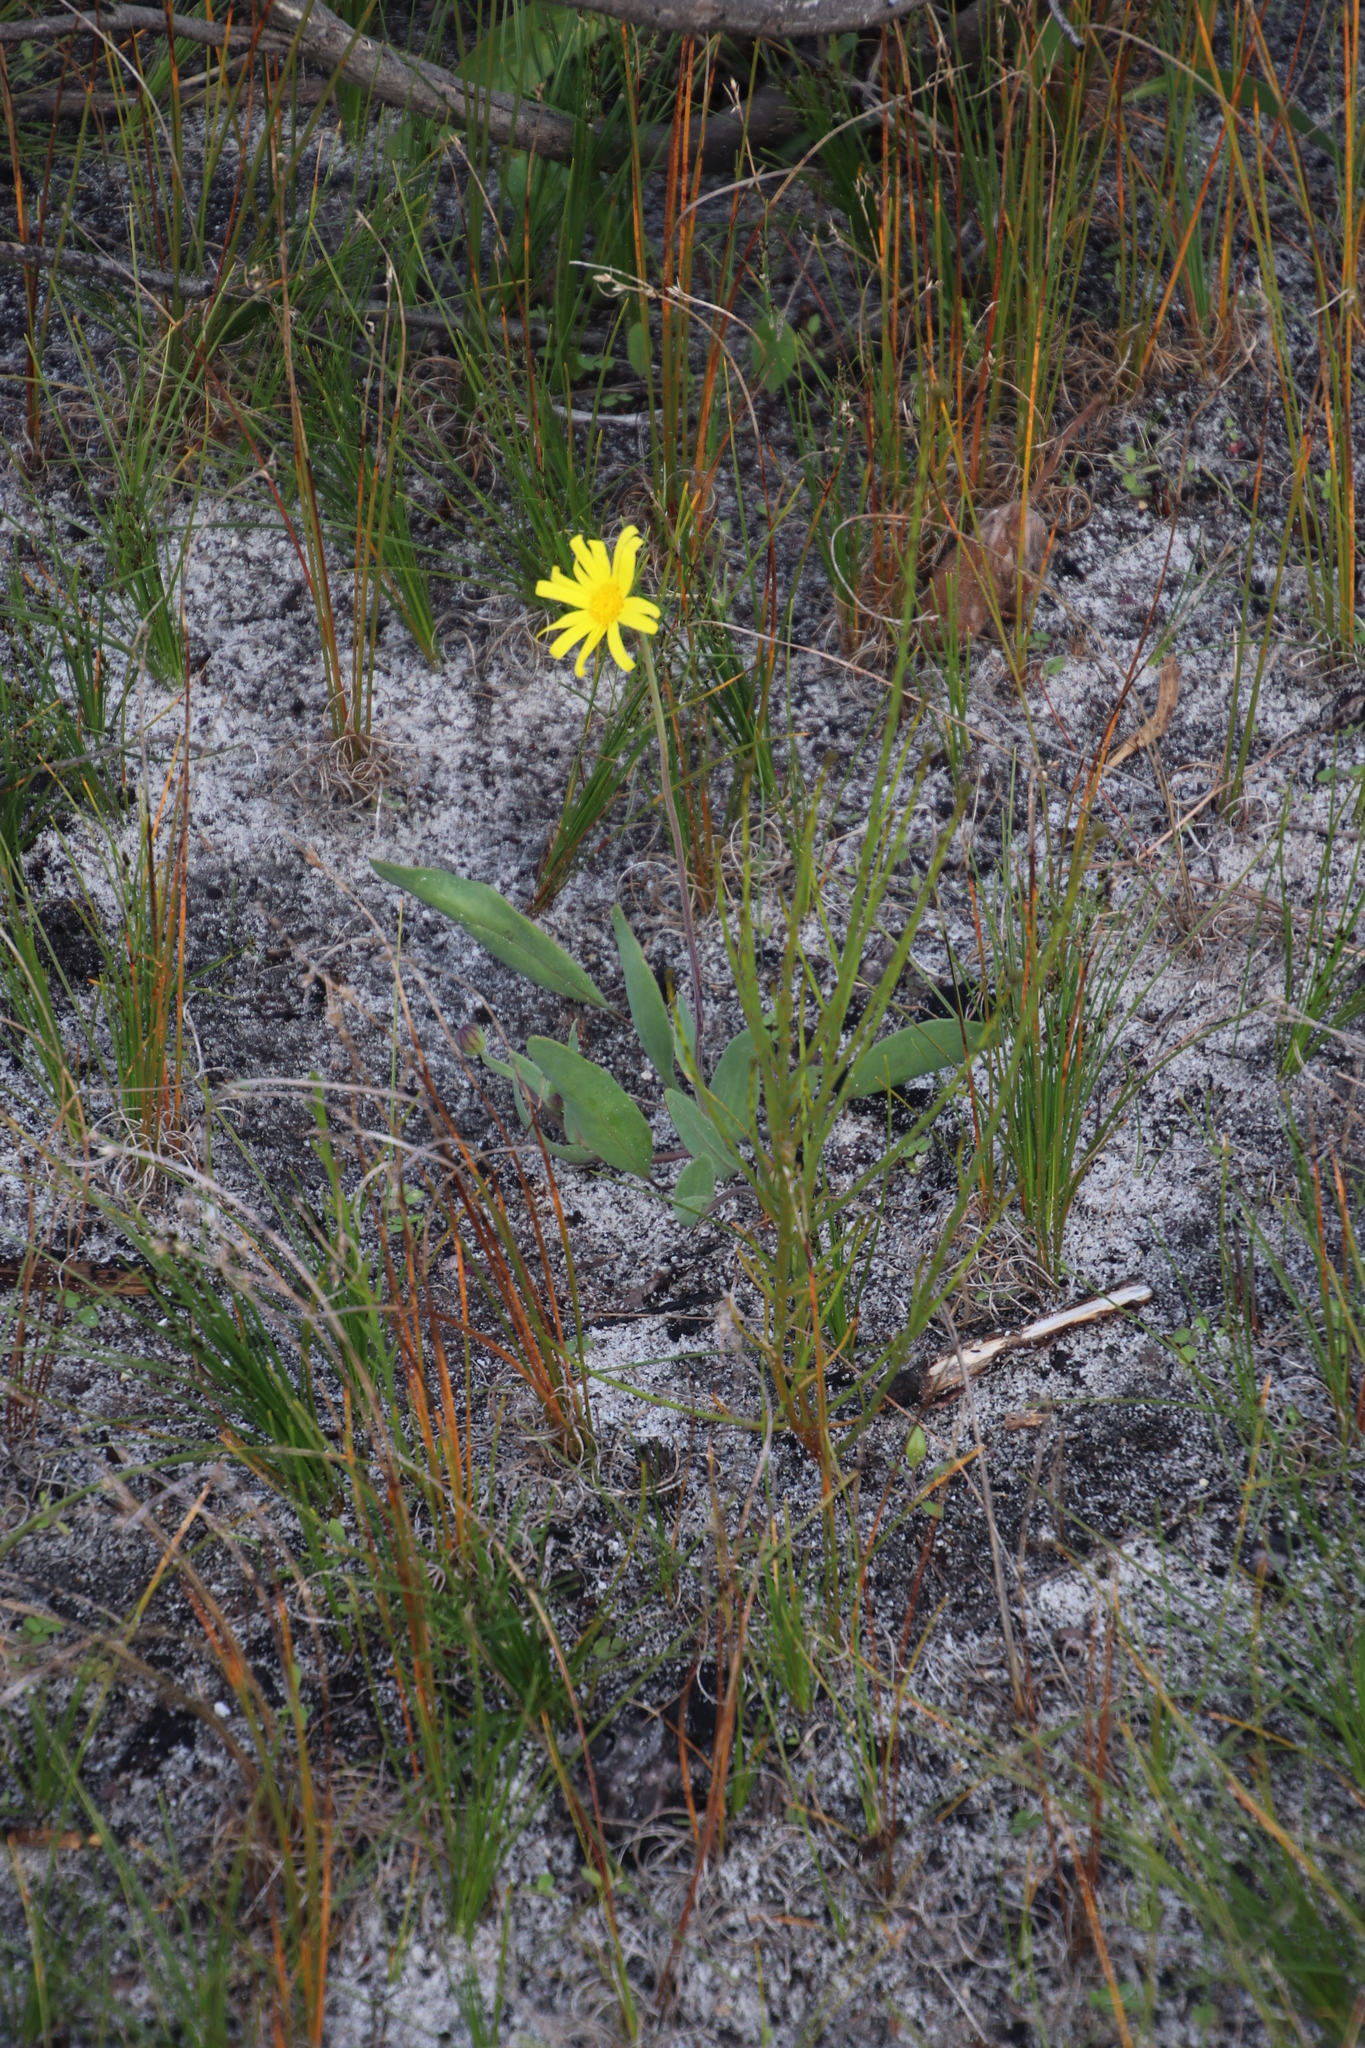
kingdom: Plantae
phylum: Tracheophyta
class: Magnoliopsida
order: Asterales
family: Asteraceae
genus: Othonna
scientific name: Othonna bulbosa
